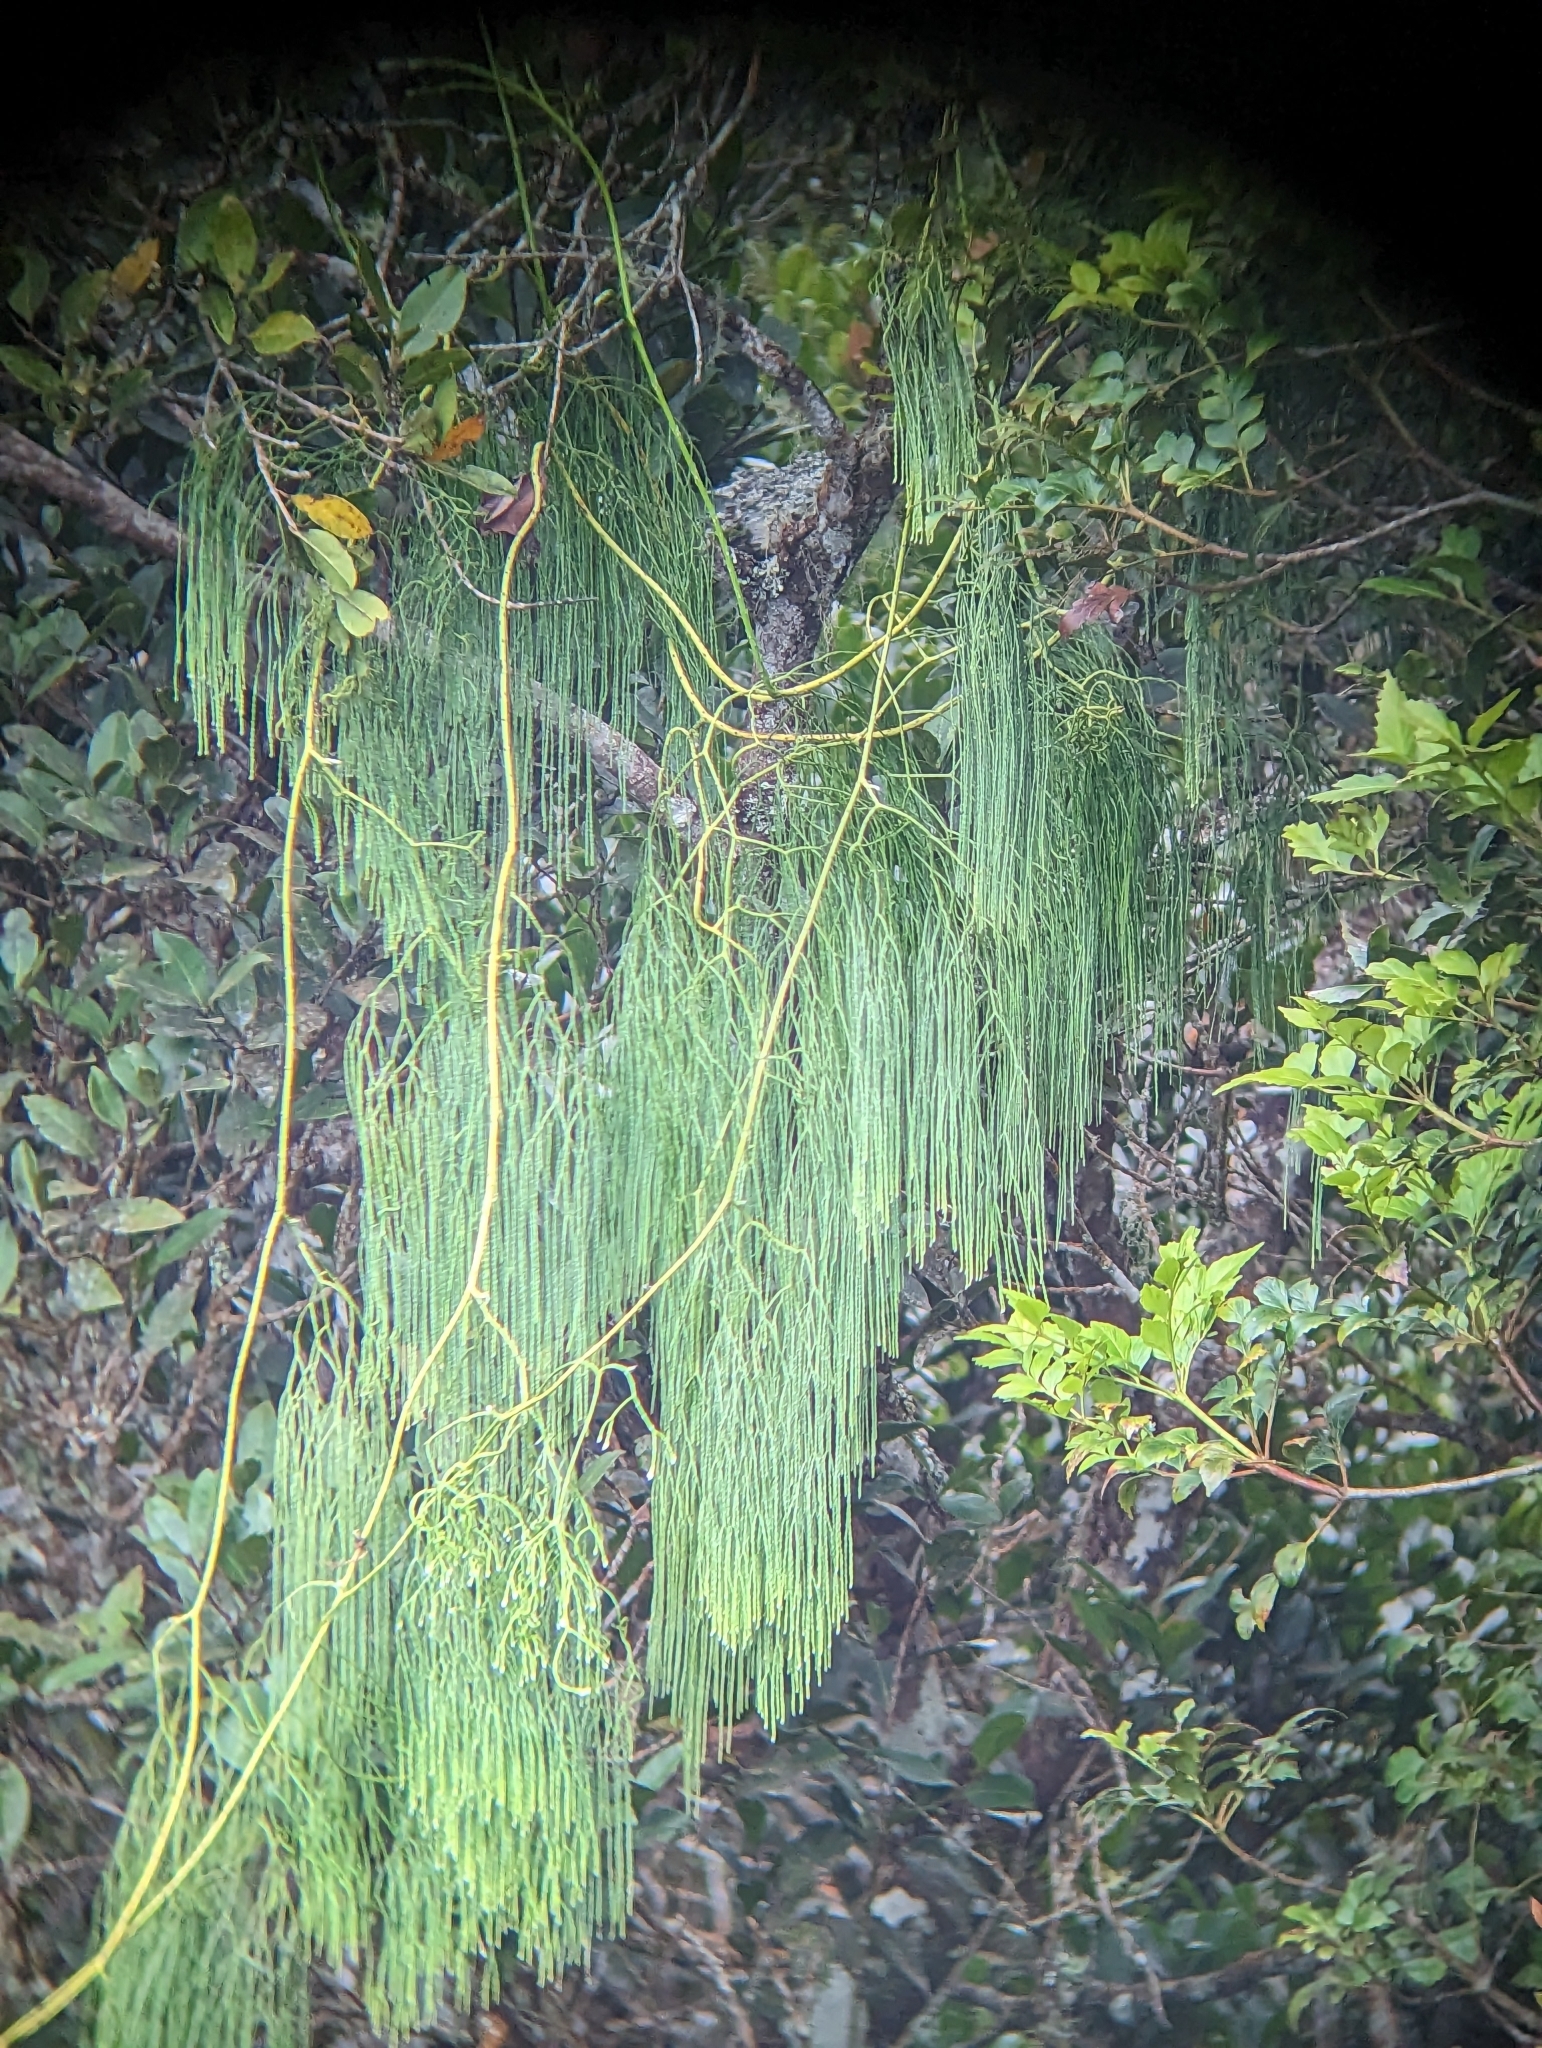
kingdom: Plantae
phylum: Tracheophyta
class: Lycopodiopsida
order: Lycopodiales
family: Lycopodiaceae
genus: Lycopodiastrum
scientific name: Lycopodiastrum casuarinoides
